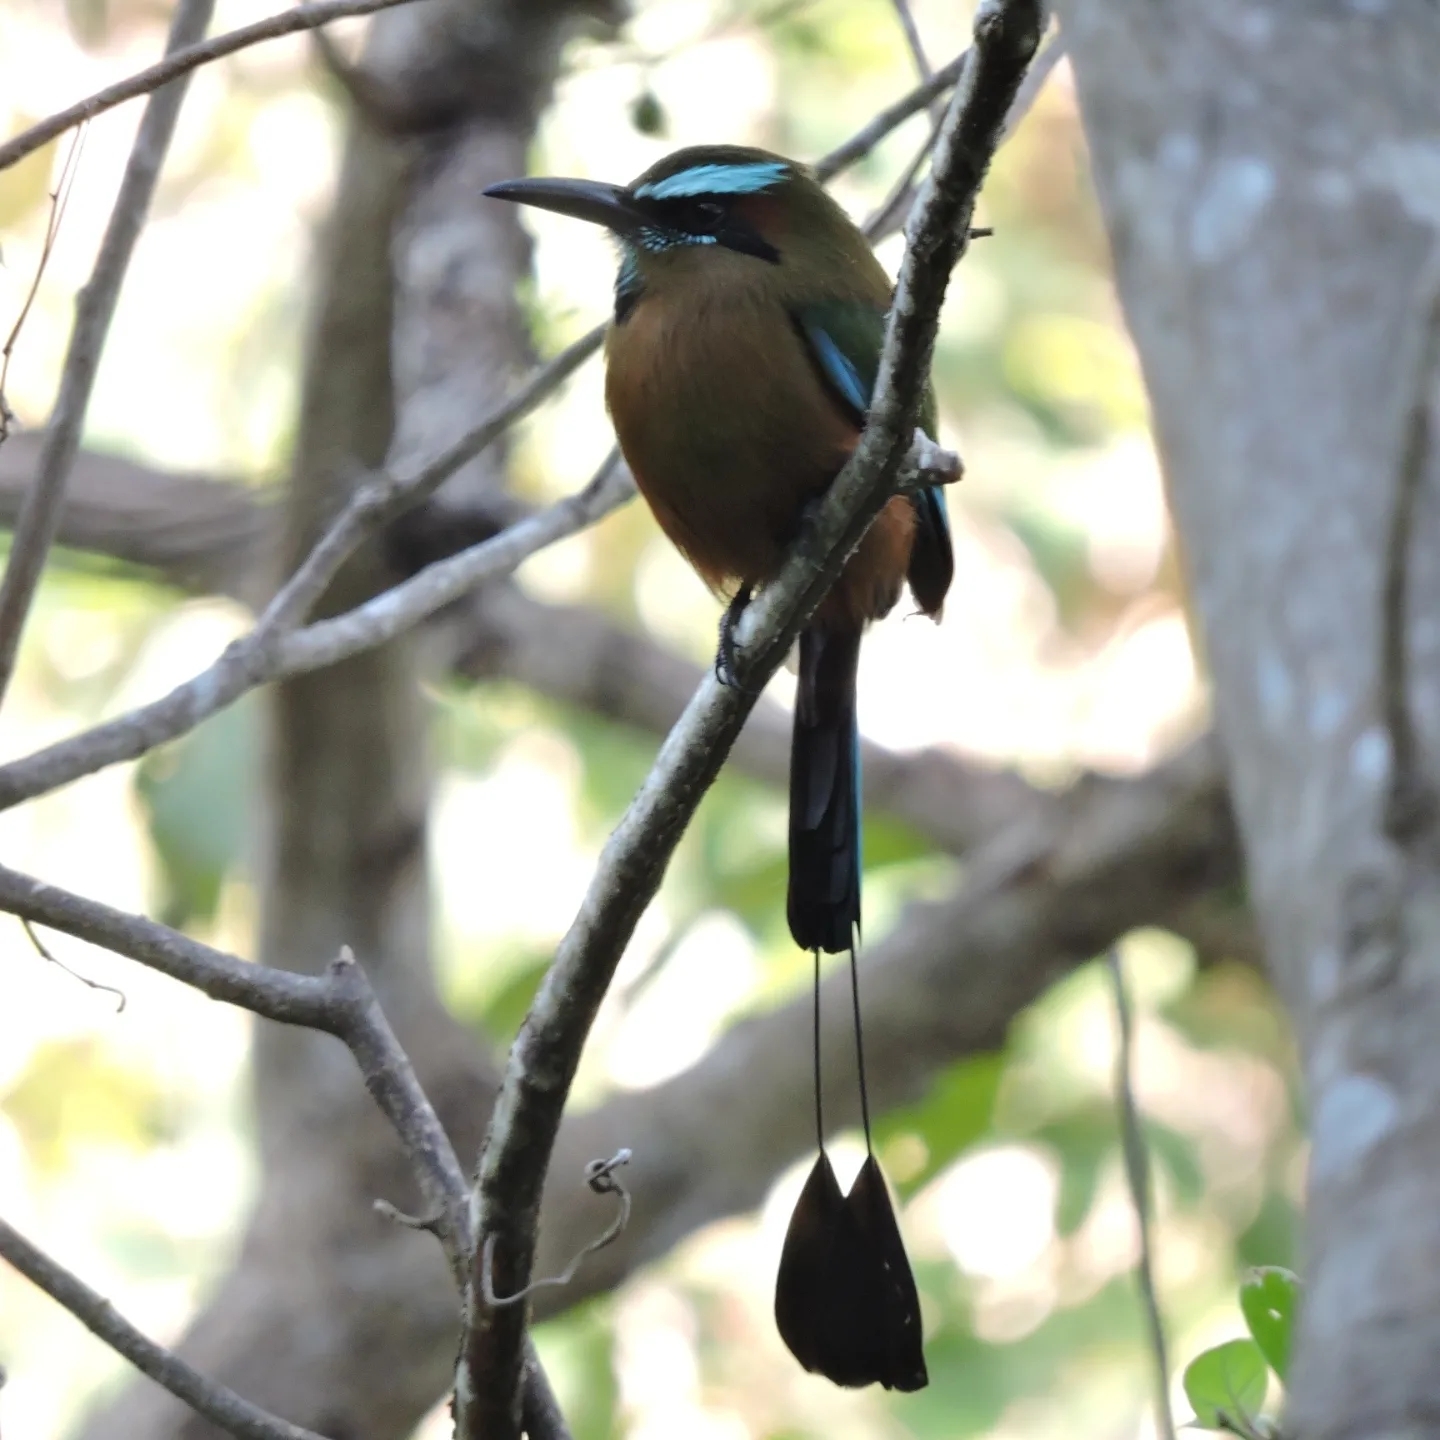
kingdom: Animalia
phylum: Chordata
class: Aves
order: Coraciiformes
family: Momotidae
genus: Eumomota
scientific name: Eumomota superciliosa
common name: Turquoise-browed motmot
